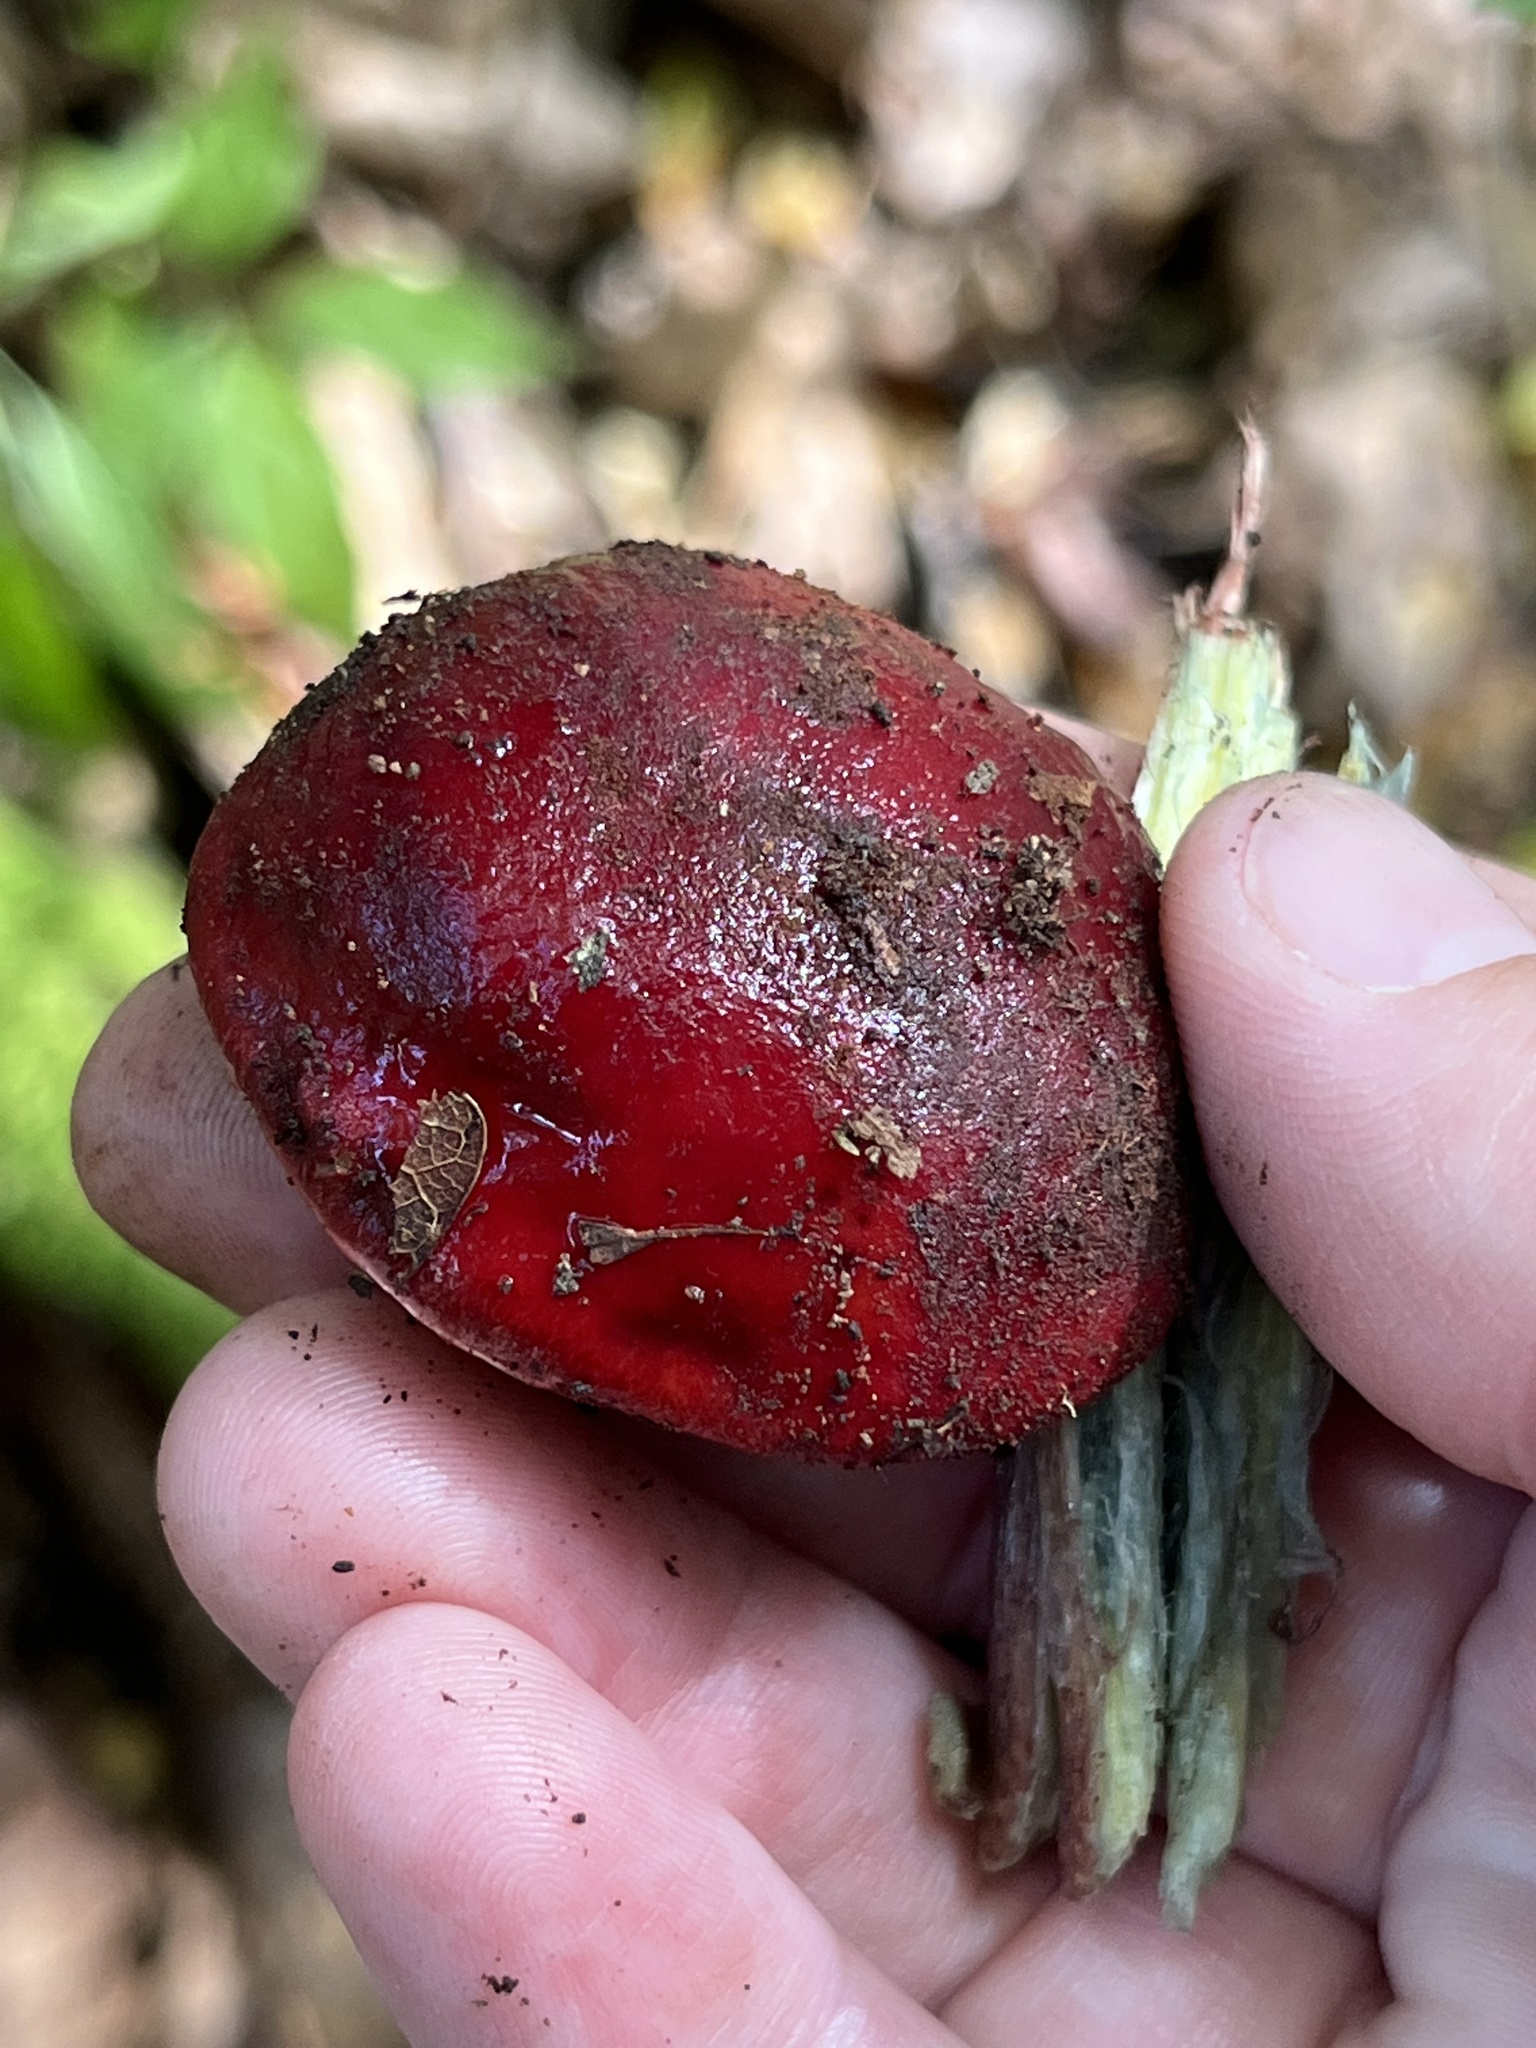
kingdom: Fungi
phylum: Basidiomycota
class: Agaricomycetes
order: Boletales
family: Boletaceae
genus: Butyriboletus
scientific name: Butyriboletus frostii
